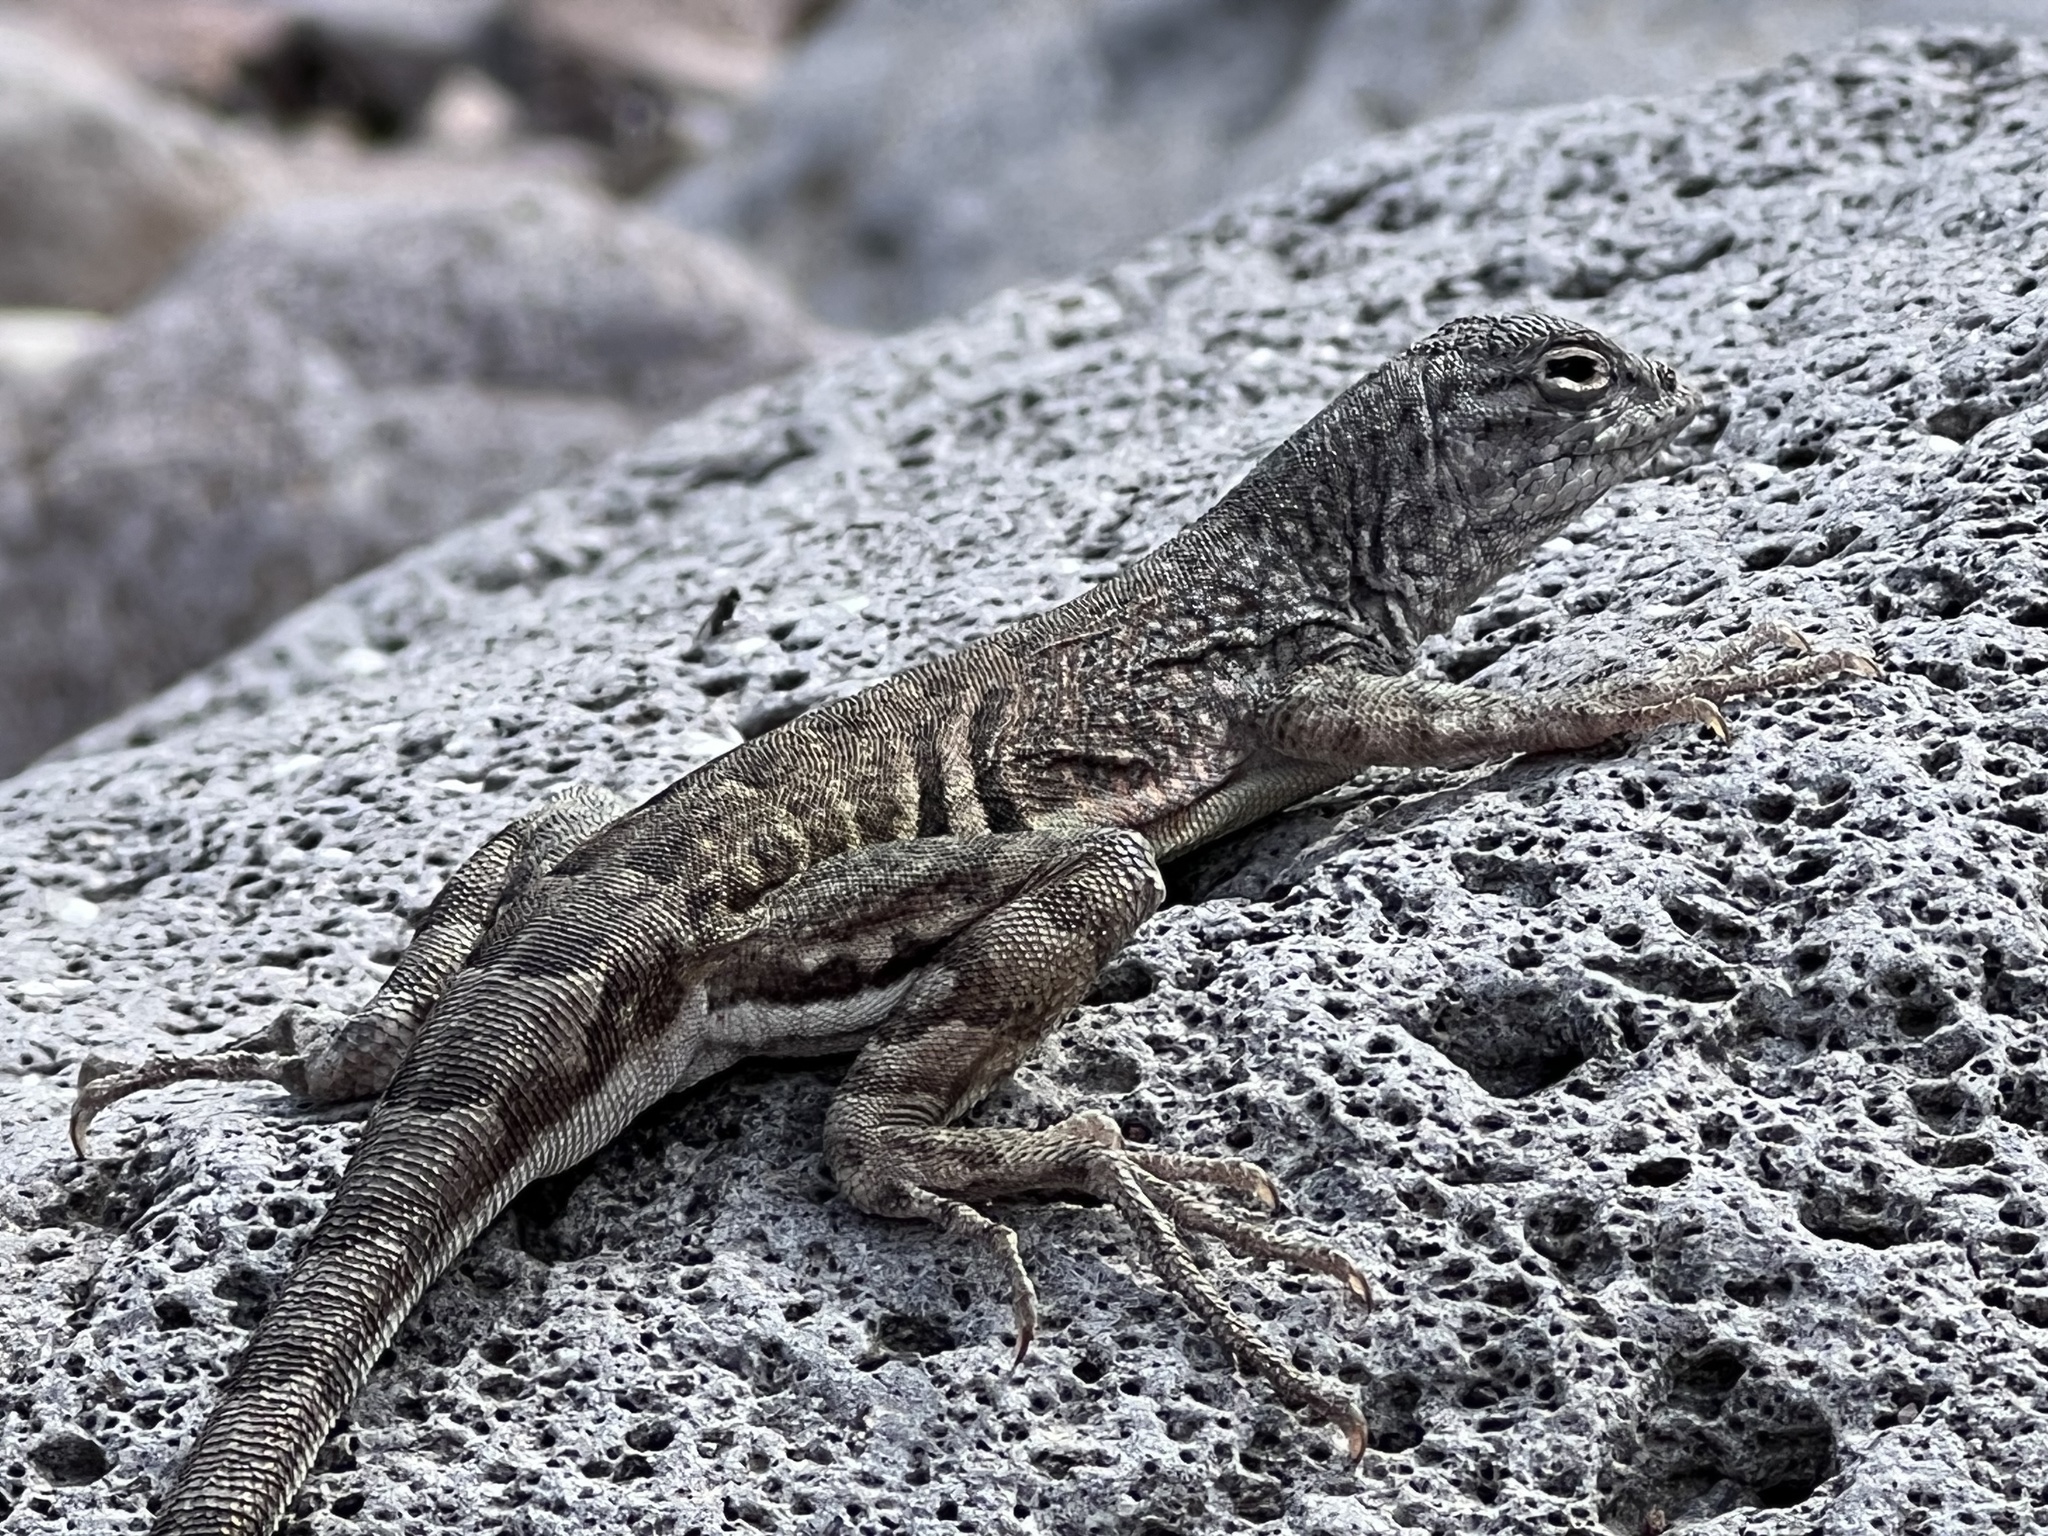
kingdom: Animalia
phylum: Chordata
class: Squamata
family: Phrynosomatidae
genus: Cophosaurus
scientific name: Cophosaurus texanus
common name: Greater earless lizard
